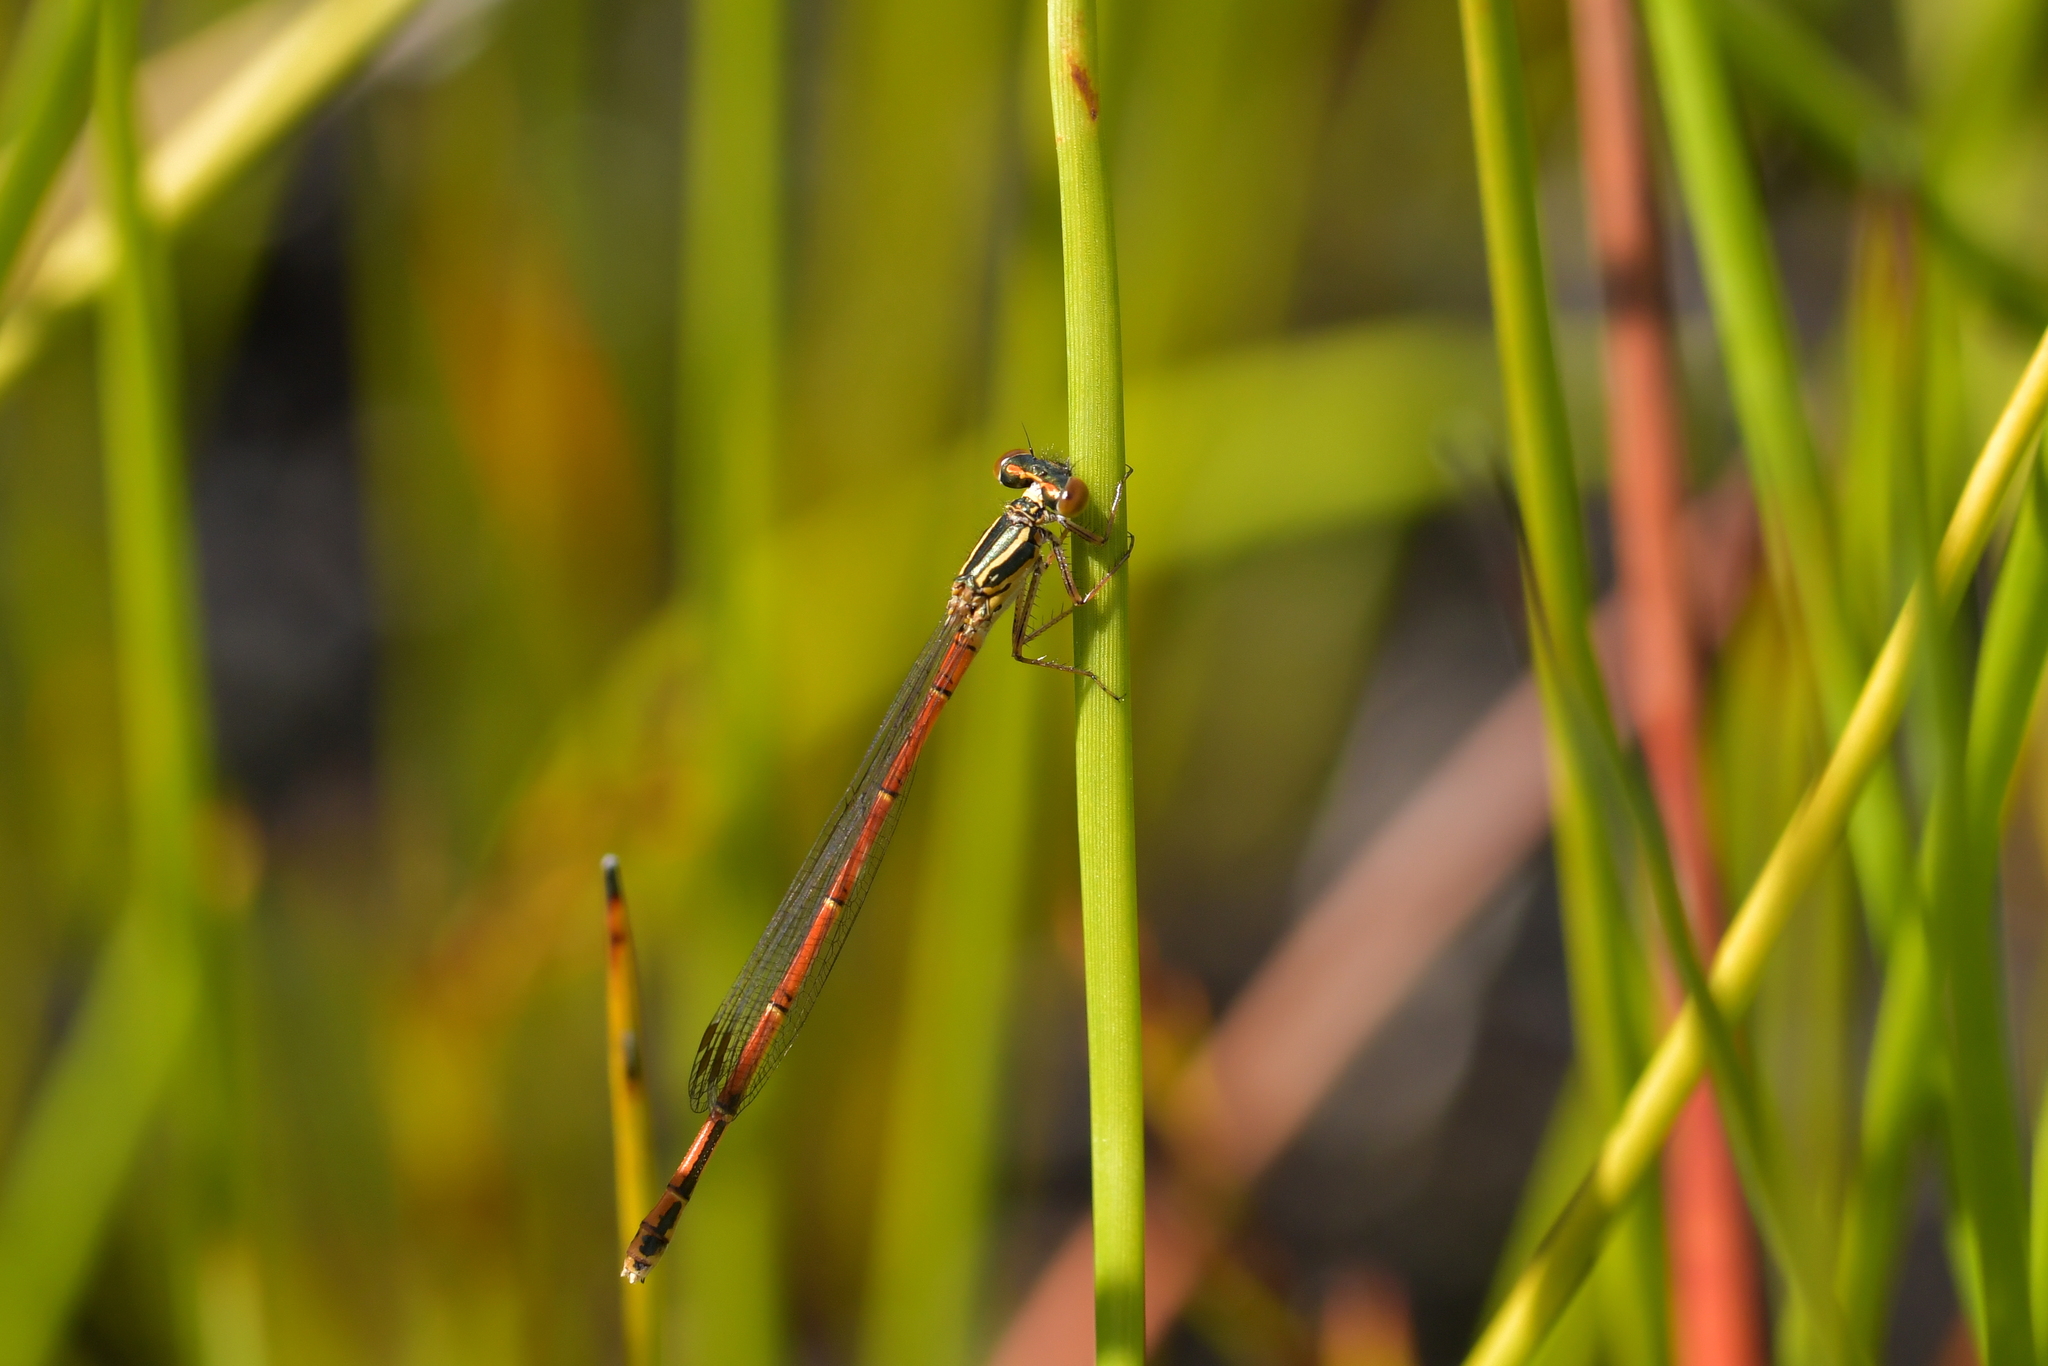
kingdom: Animalia
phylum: Arthropoda
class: Insecta
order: Odonata
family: Coenagrionidae
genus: Xanthocnemis
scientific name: Xanthocnemis zealandica
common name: Common redcoat damselfly
